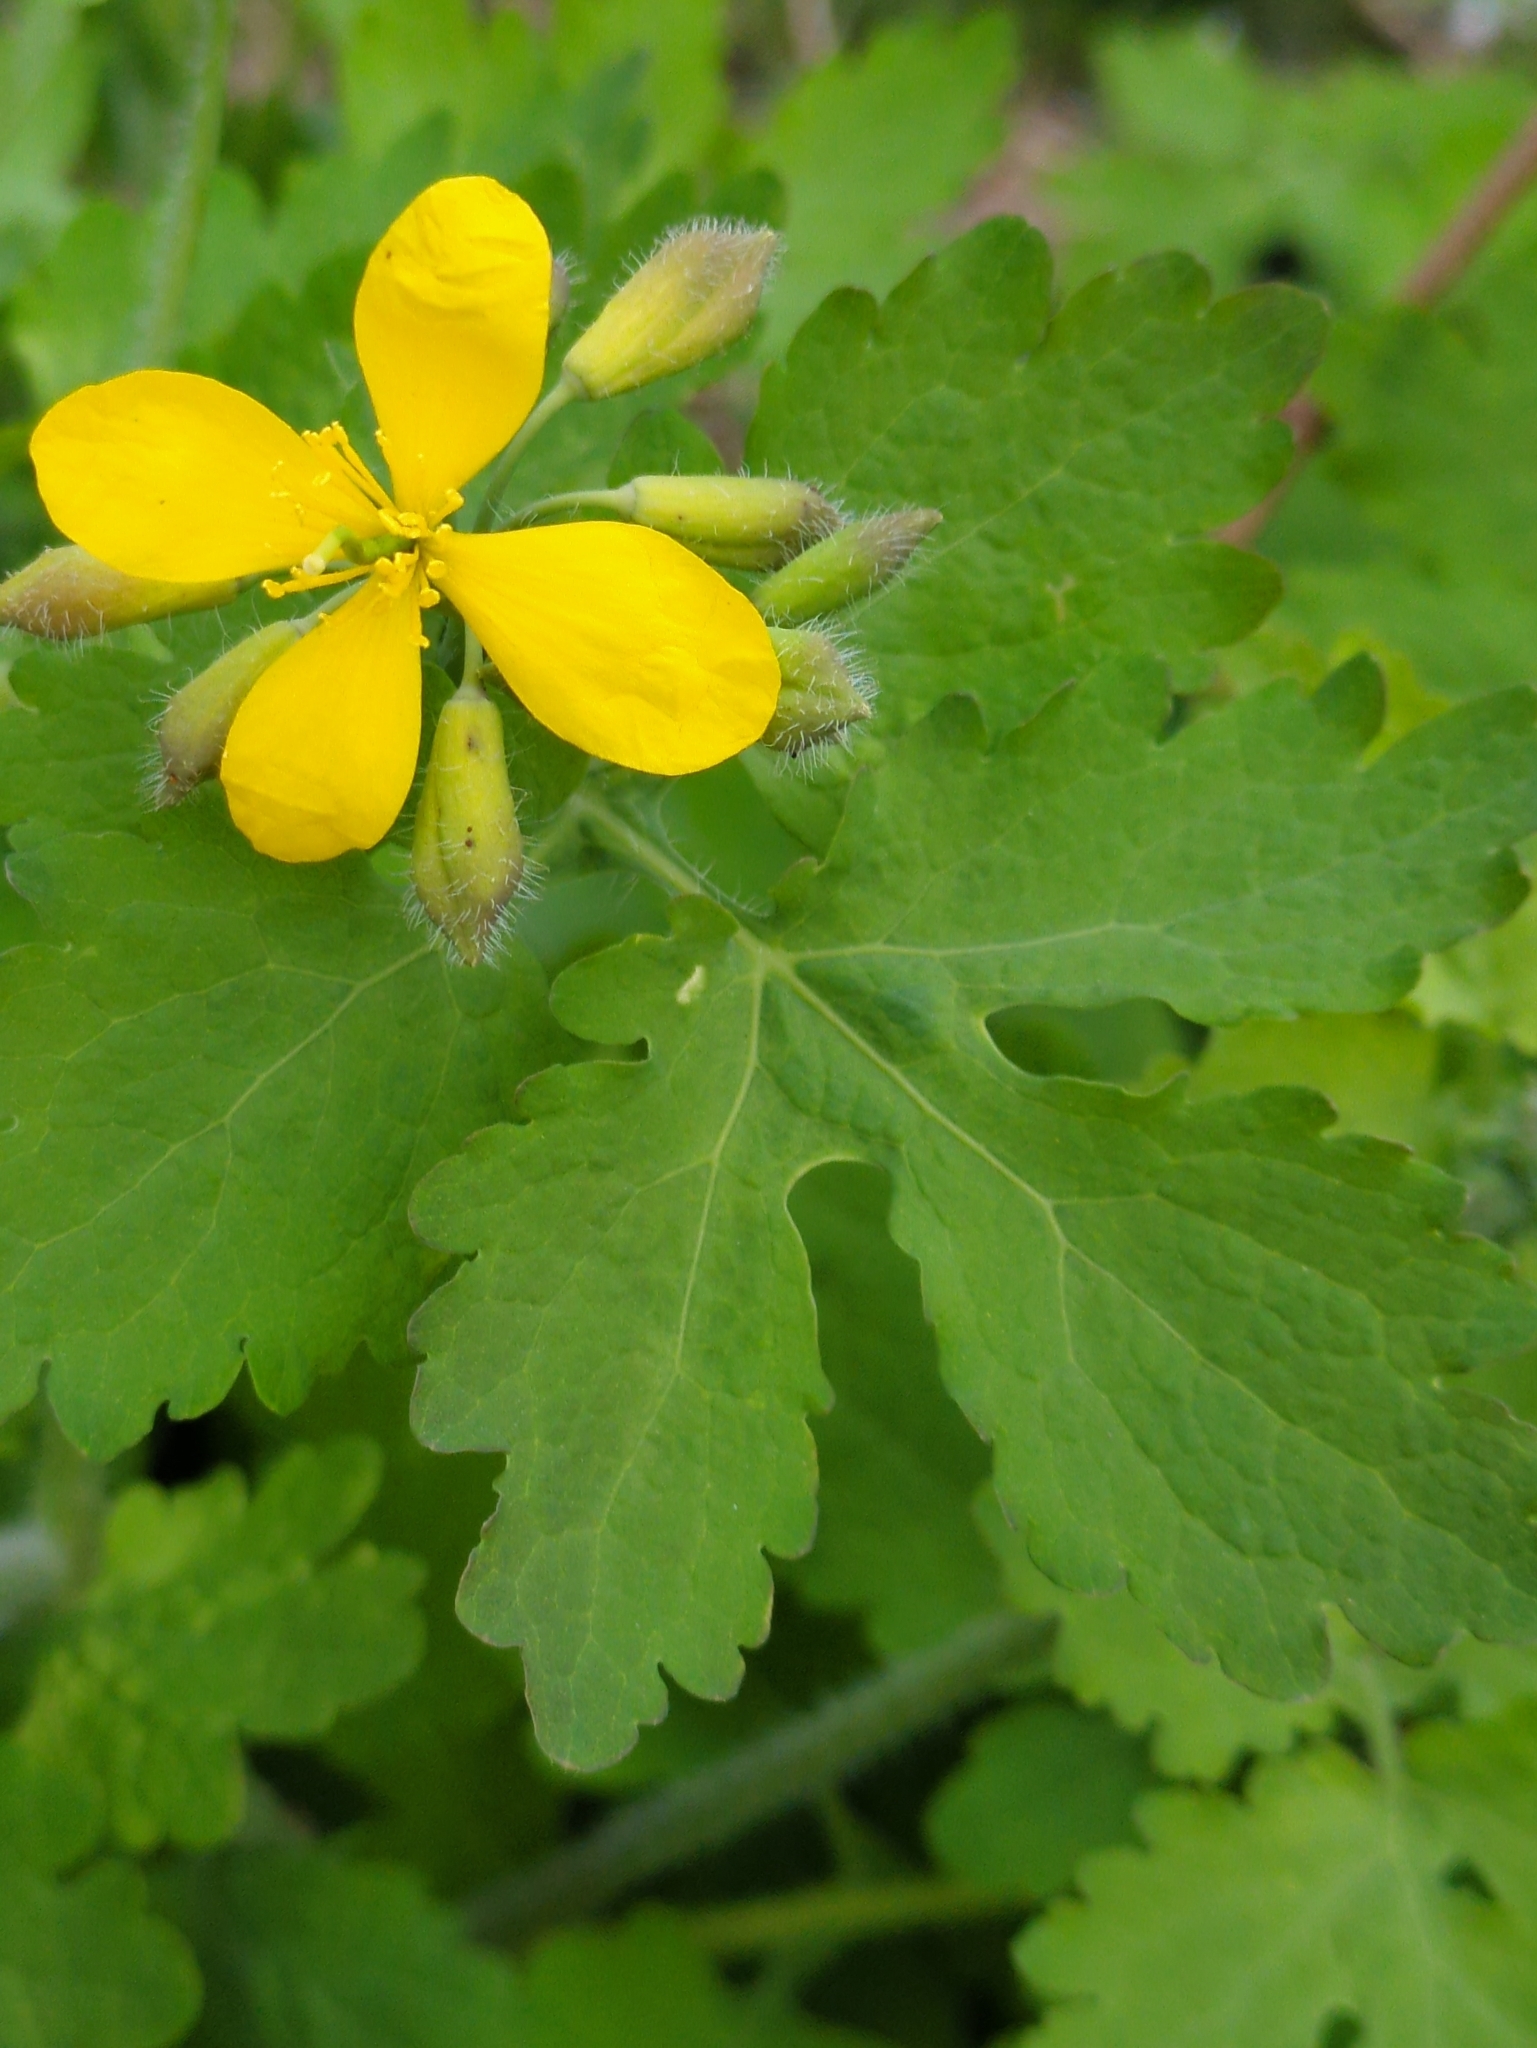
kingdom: Plantae
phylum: Tracheophyta
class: Magnoliopsida
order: Ranunculales
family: Papaveraceae
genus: Chelidonium
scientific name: Chelidonium majus
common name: Greater celandine
